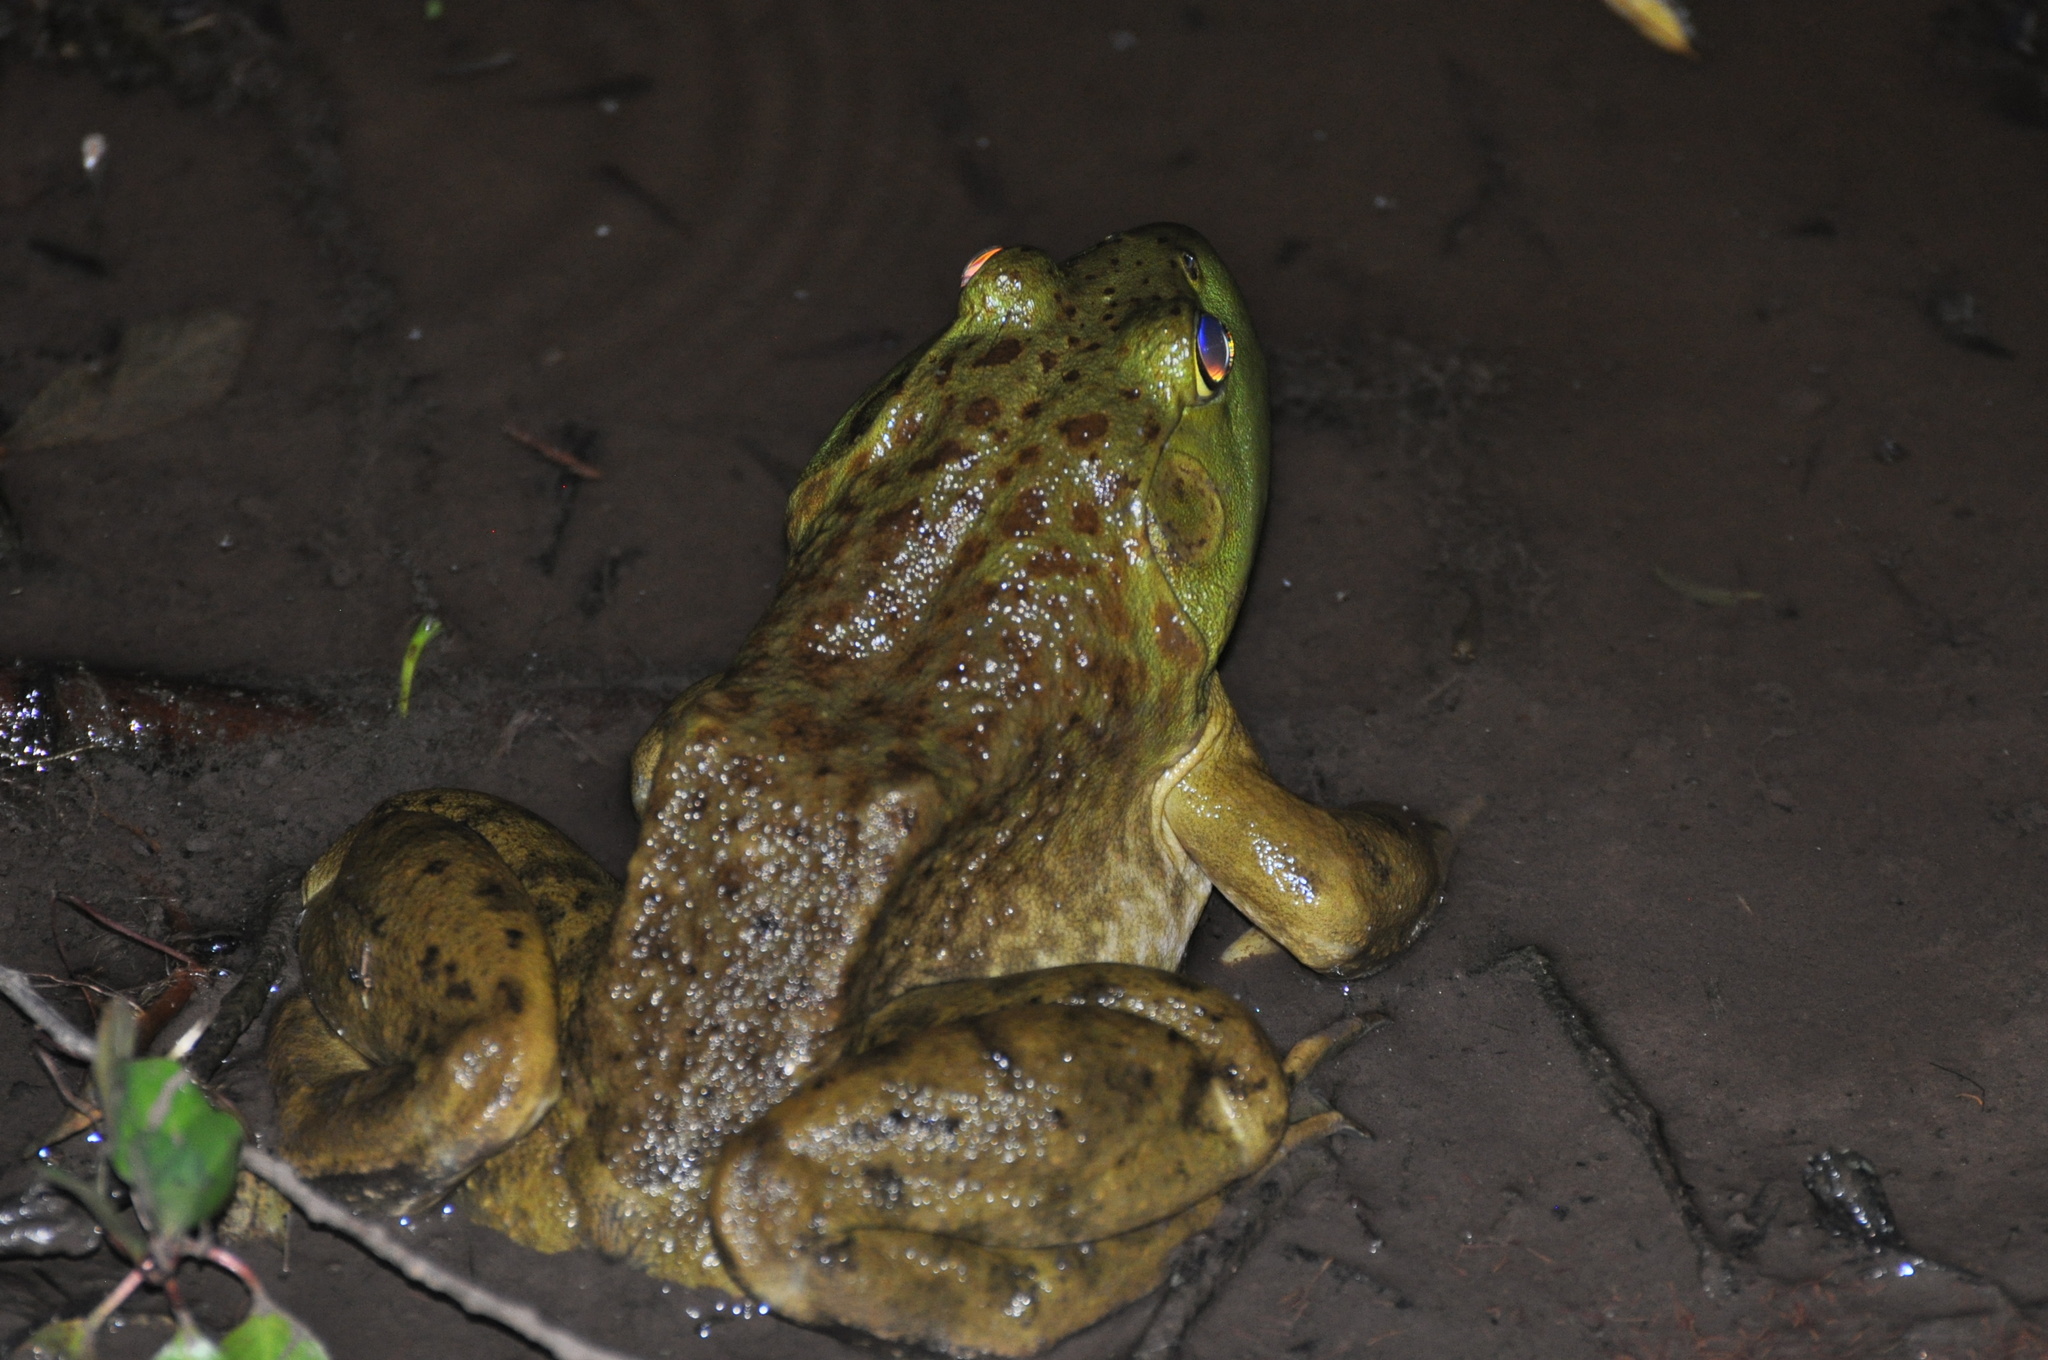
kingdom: Animalia
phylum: Chordata
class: Amphibia
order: Anura
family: Ranidae
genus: Lithobates
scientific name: Lithobates catesbeianus
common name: American bullfrog
